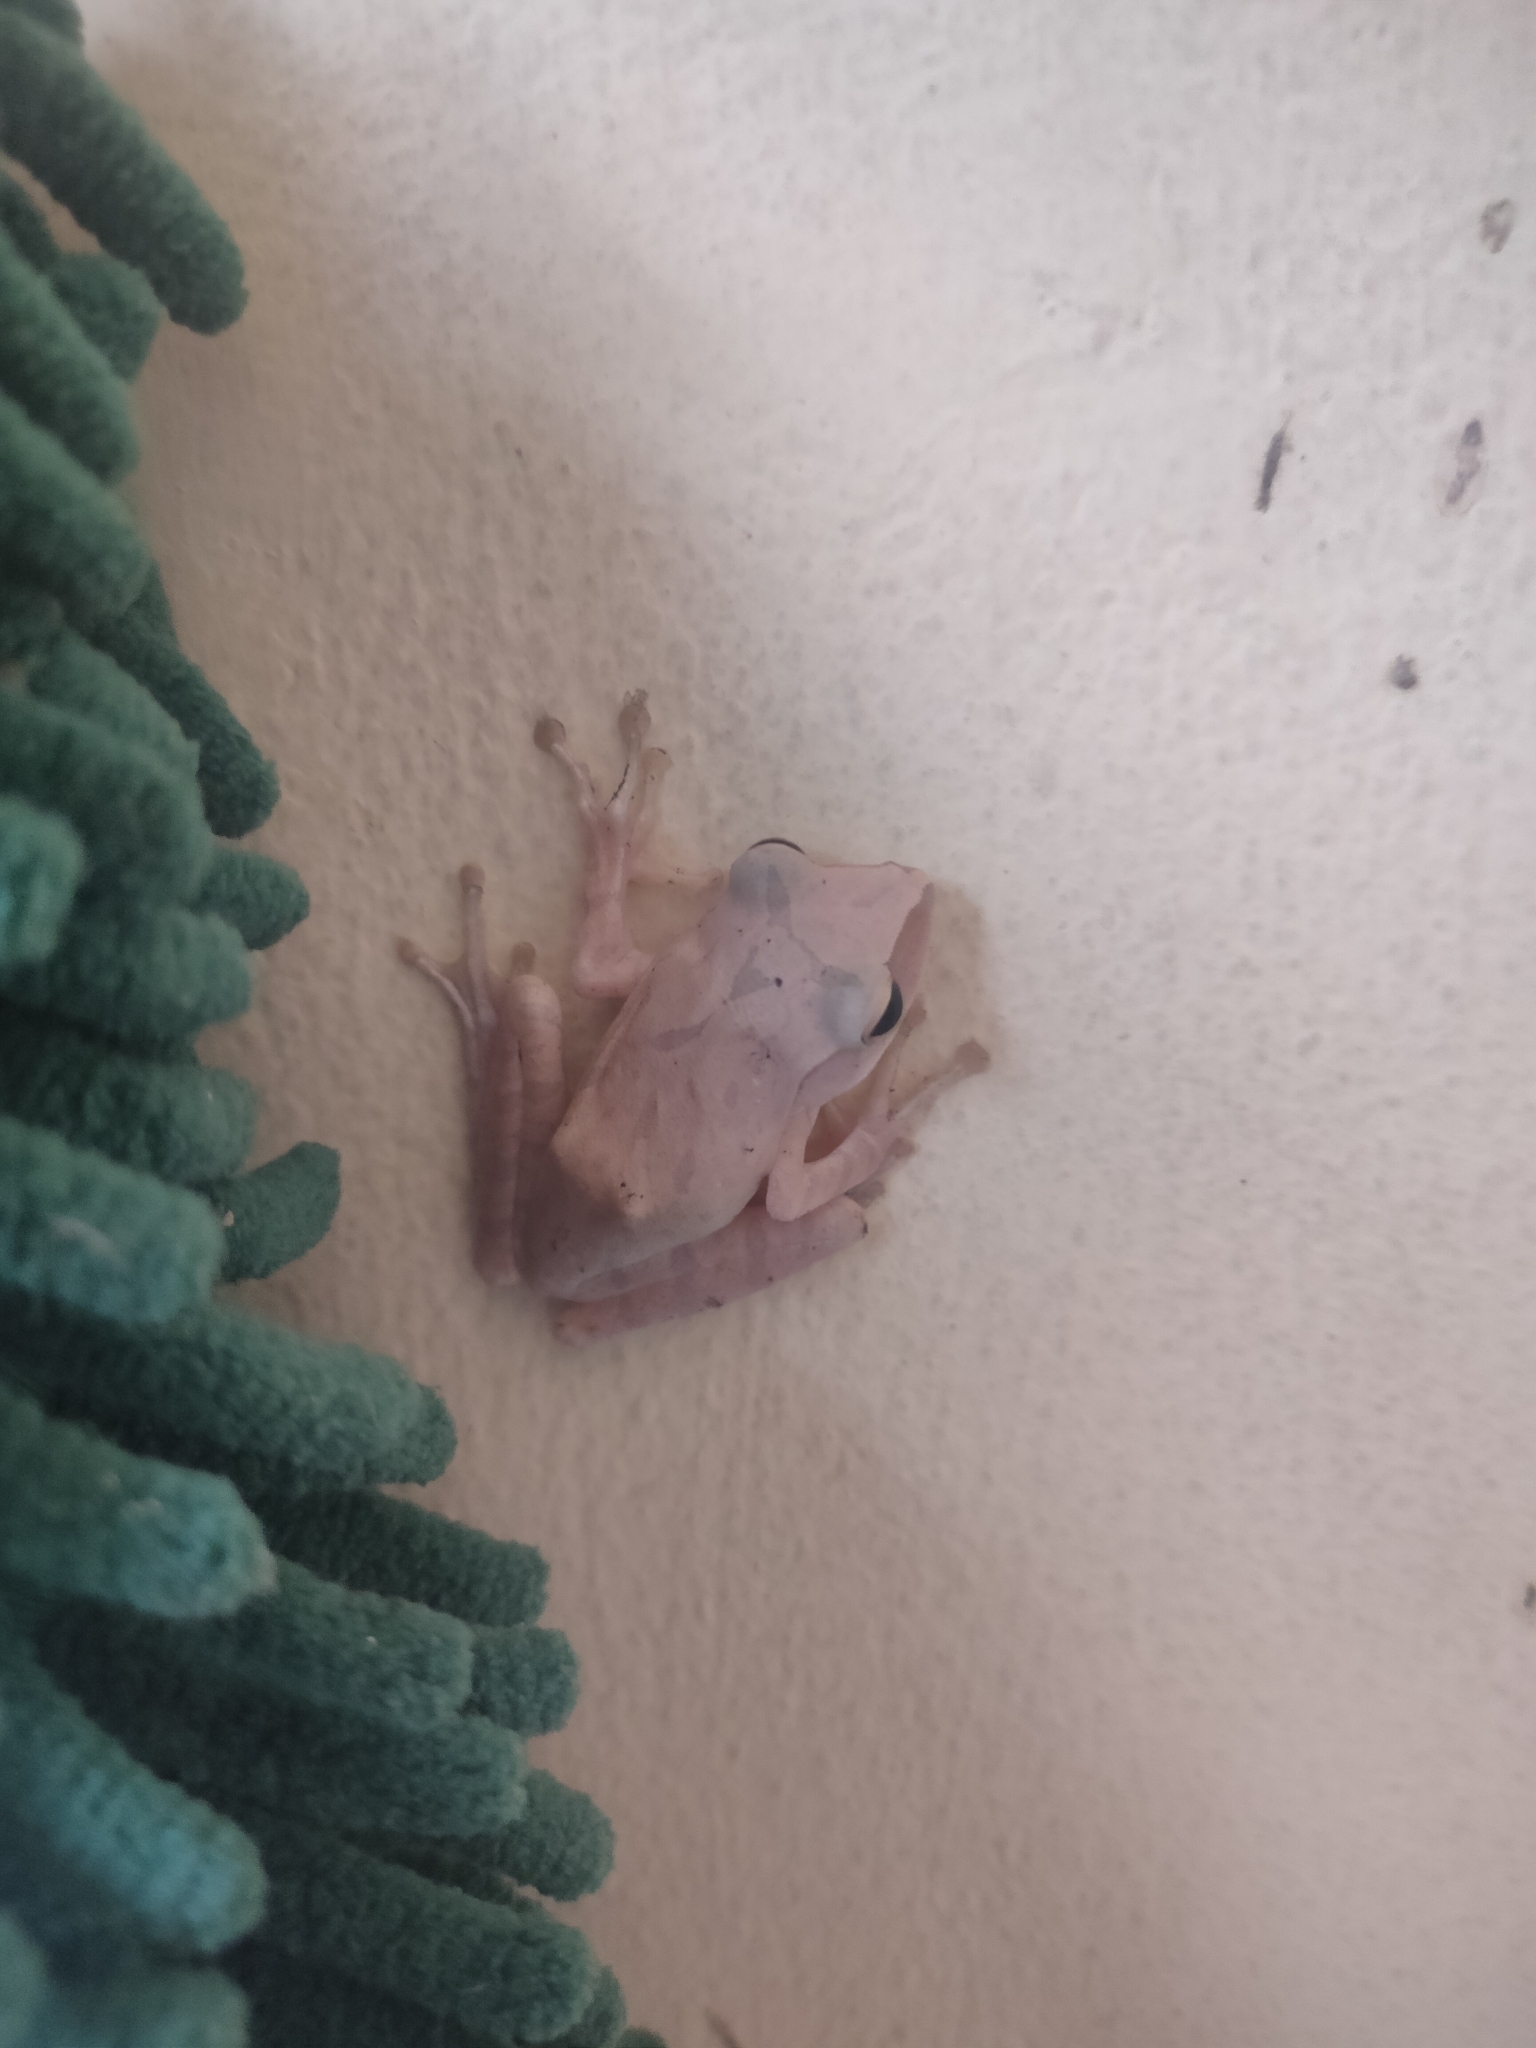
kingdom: Animalia
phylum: Chordata
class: Amphibia
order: Anura
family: Rhacophoridae
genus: Polypedates
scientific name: Polypedates megacephalus
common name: Hong kong whipping frog
